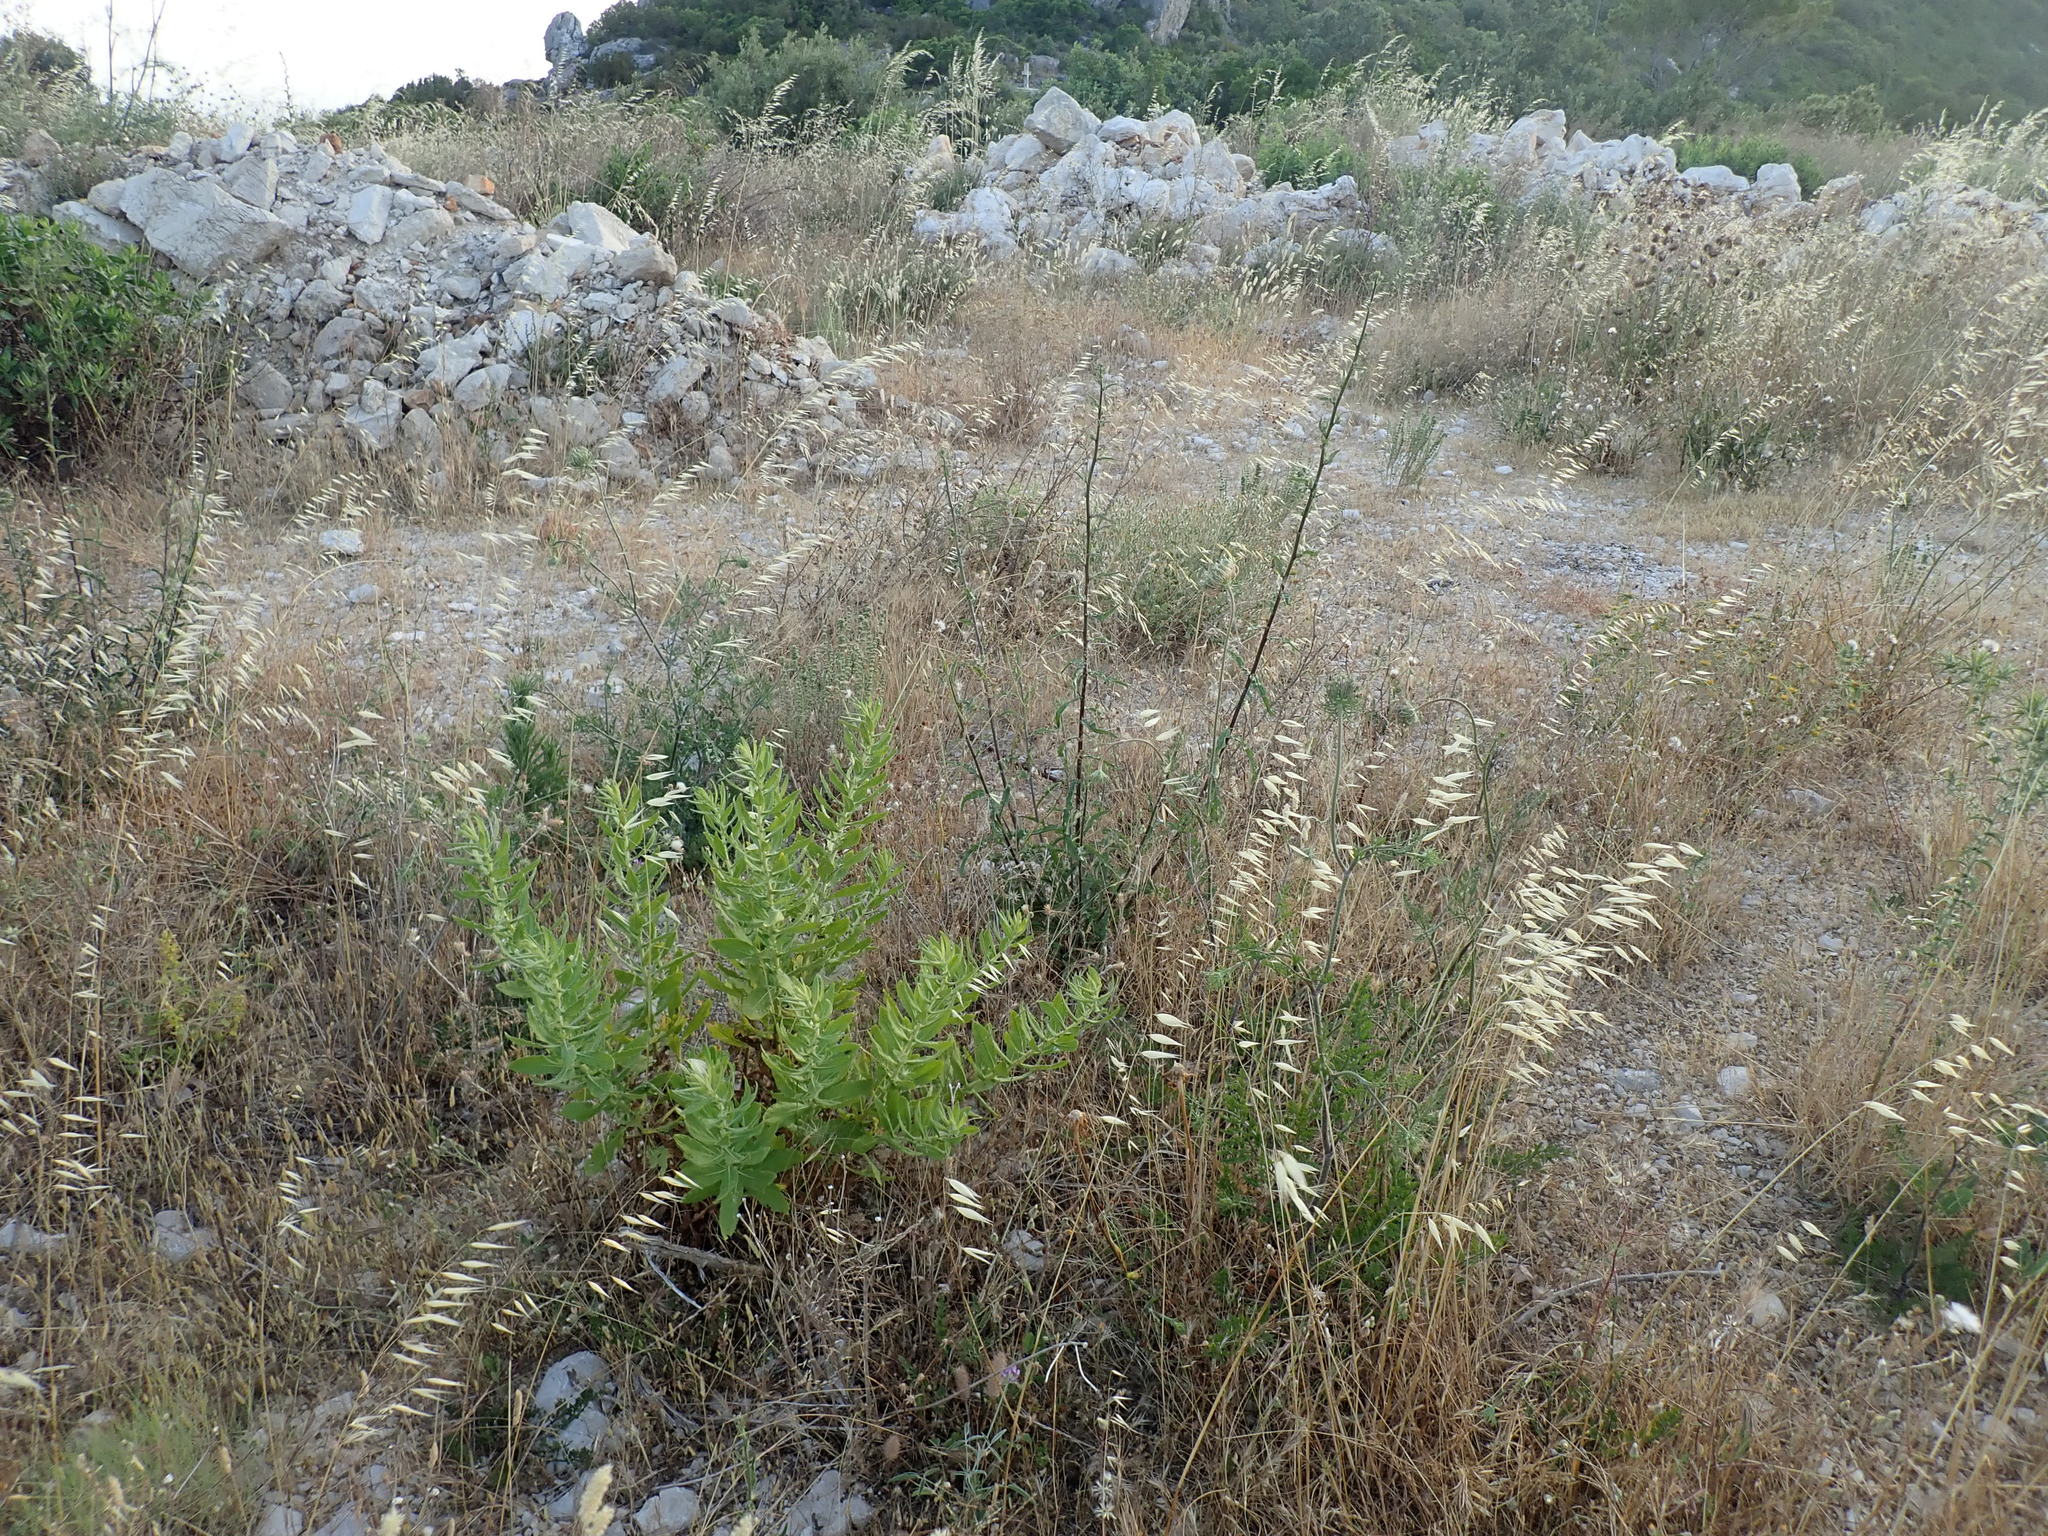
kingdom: Animalia
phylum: Arthropoda
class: Insecta
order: Orthoptera
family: Acrididae
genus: Dociostaurus
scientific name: Dociostaurus maroccanus
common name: Moroccan locust
